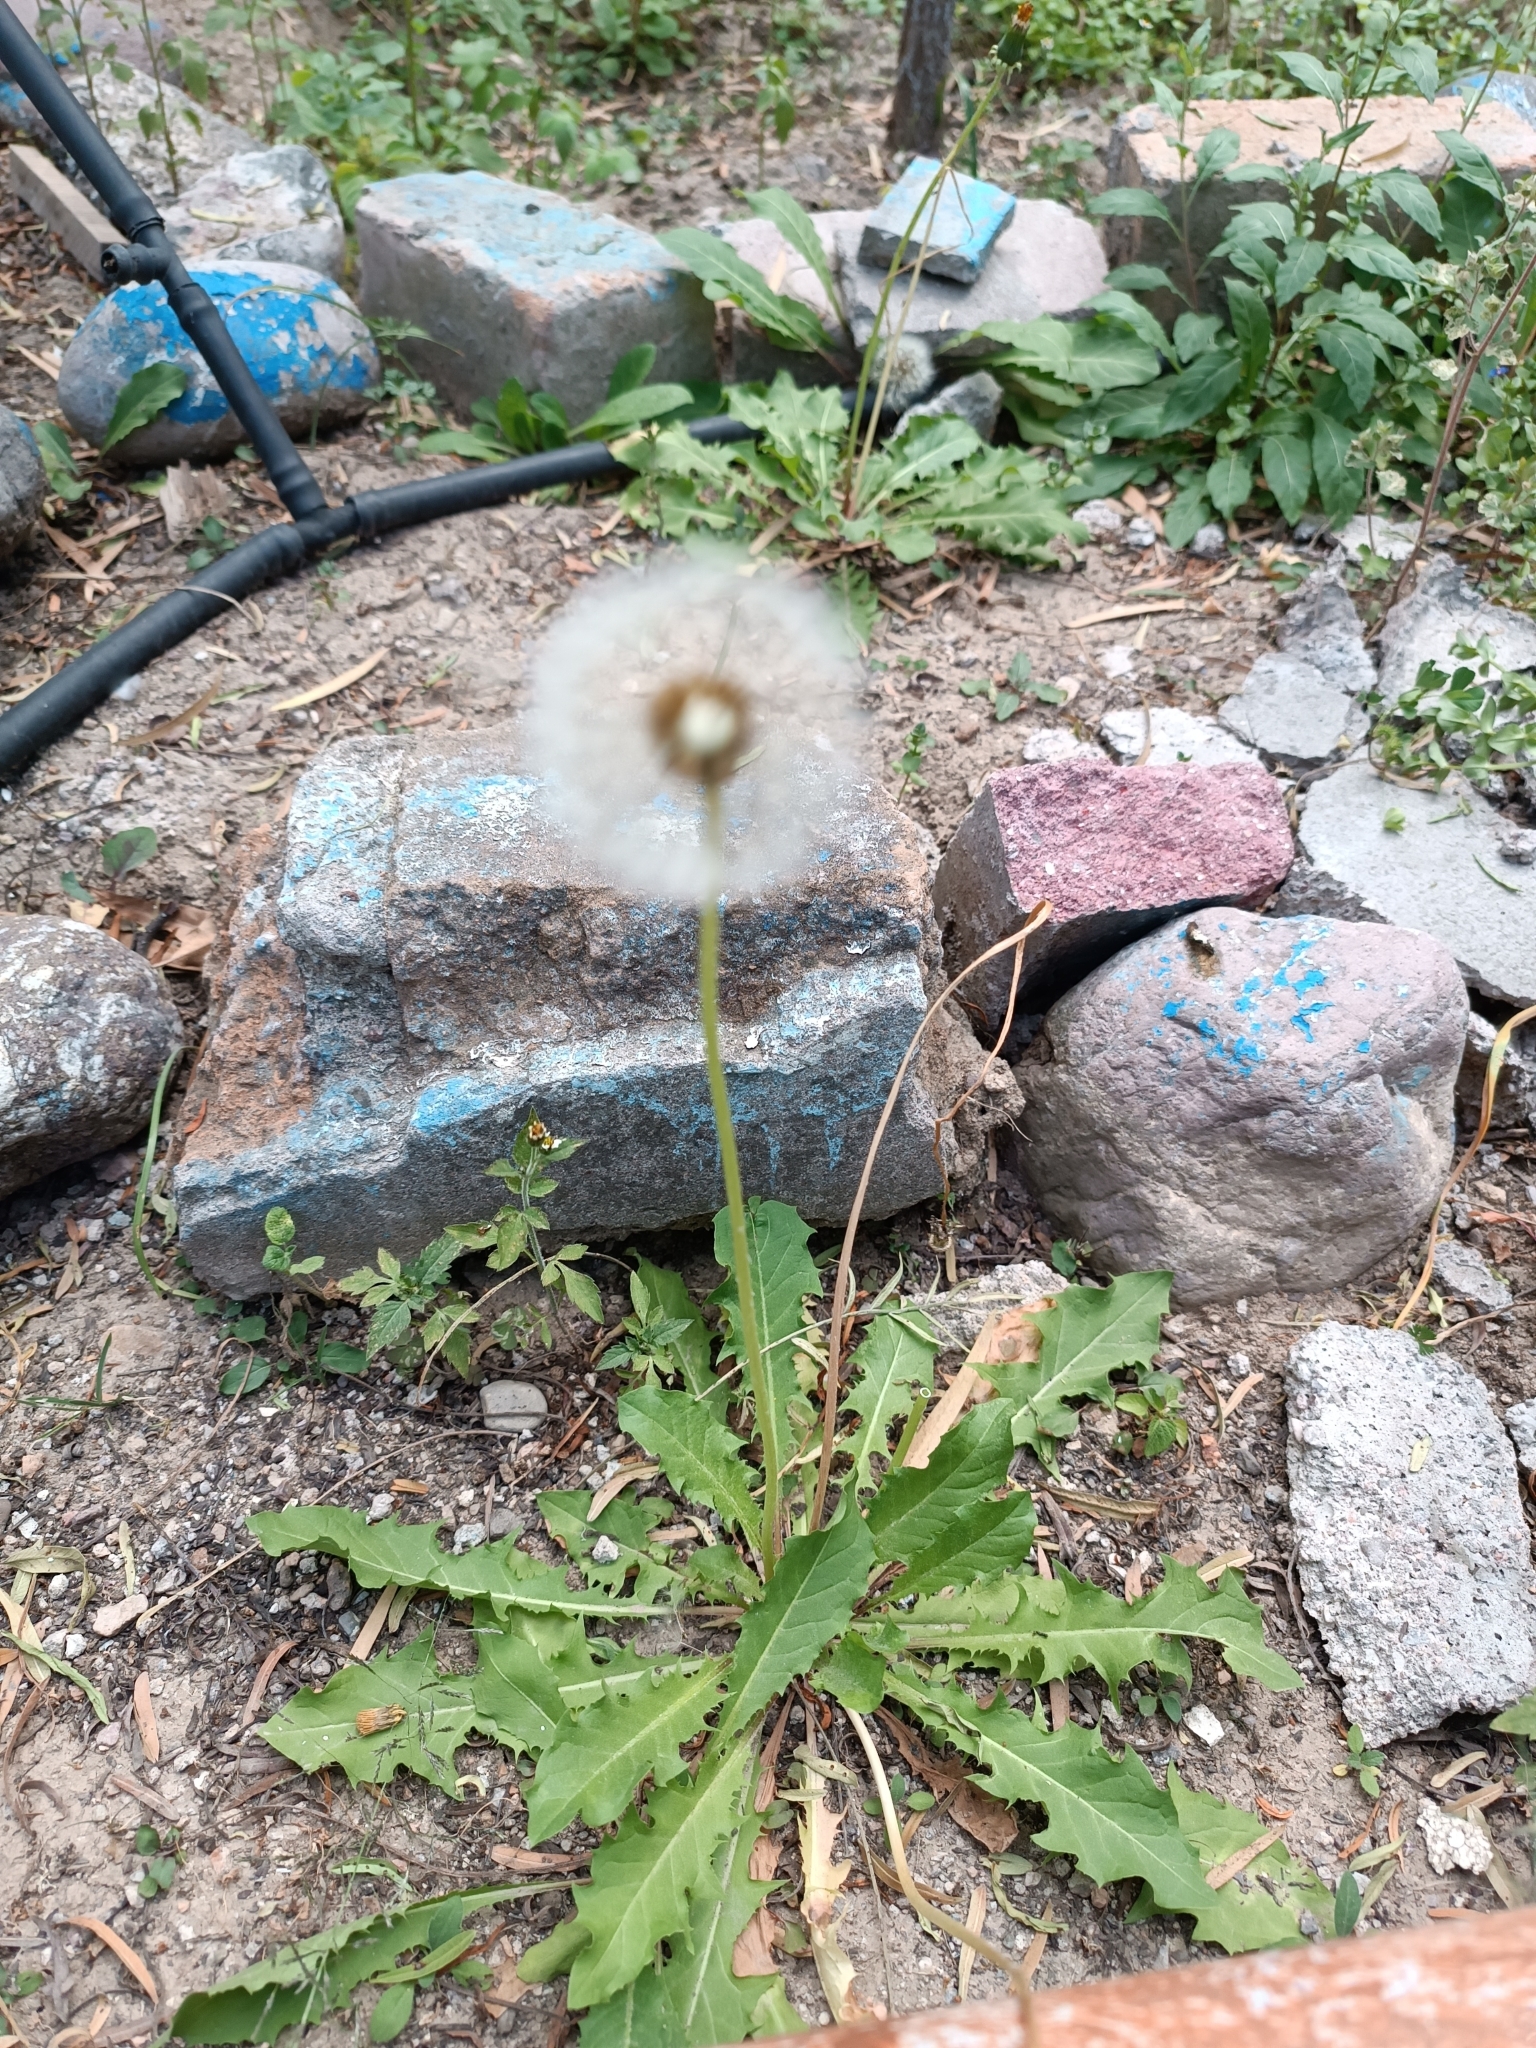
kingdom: Plantae
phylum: Tracheophyta
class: Magnoliopsida
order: Asterales
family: Asteraceae
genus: Taraxacum
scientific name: Taraxacum officinale
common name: Common dandelion
